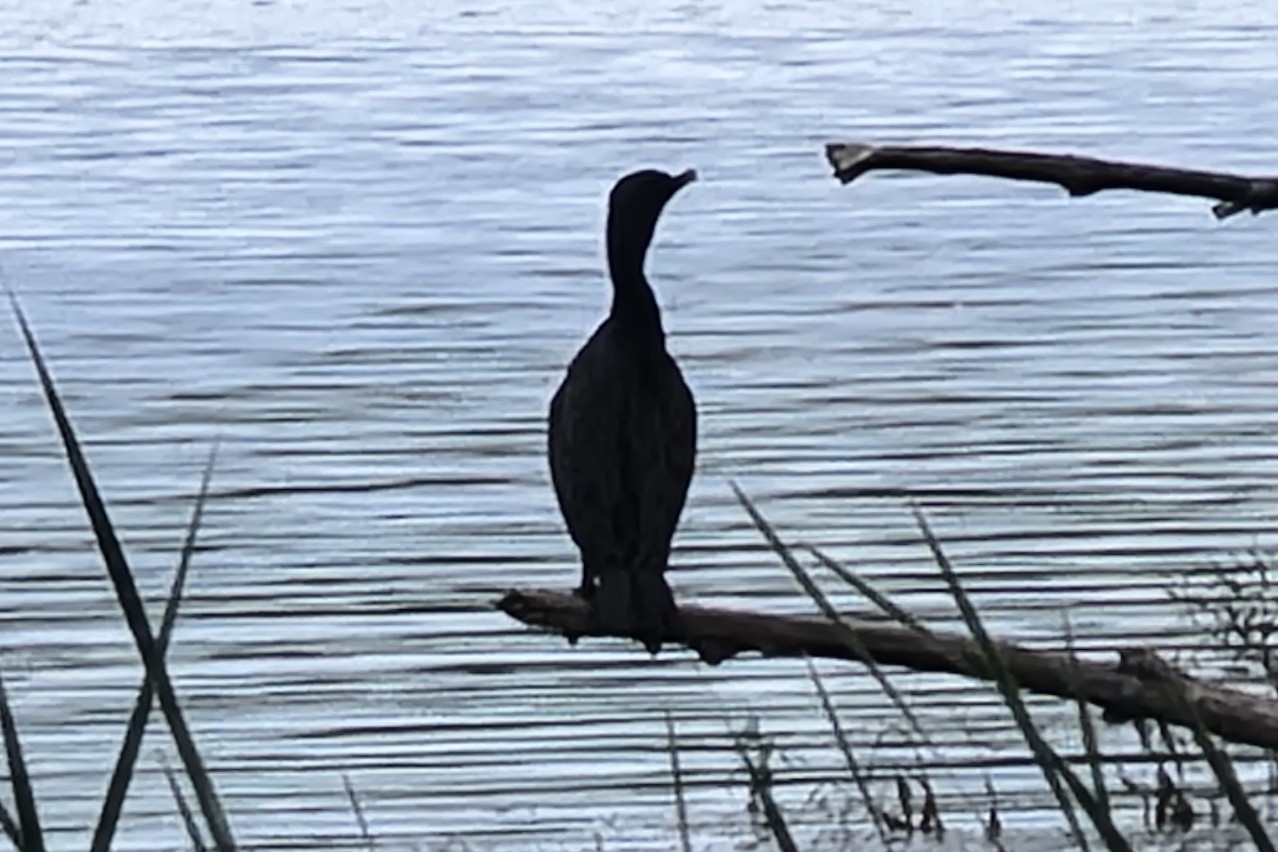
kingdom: Animalia
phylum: Chordata
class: Aves
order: Suliformes
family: Phalacrocoracidae
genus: Phalacrocorax
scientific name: Phalacrocorax auritus
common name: Double-crested cormorant
